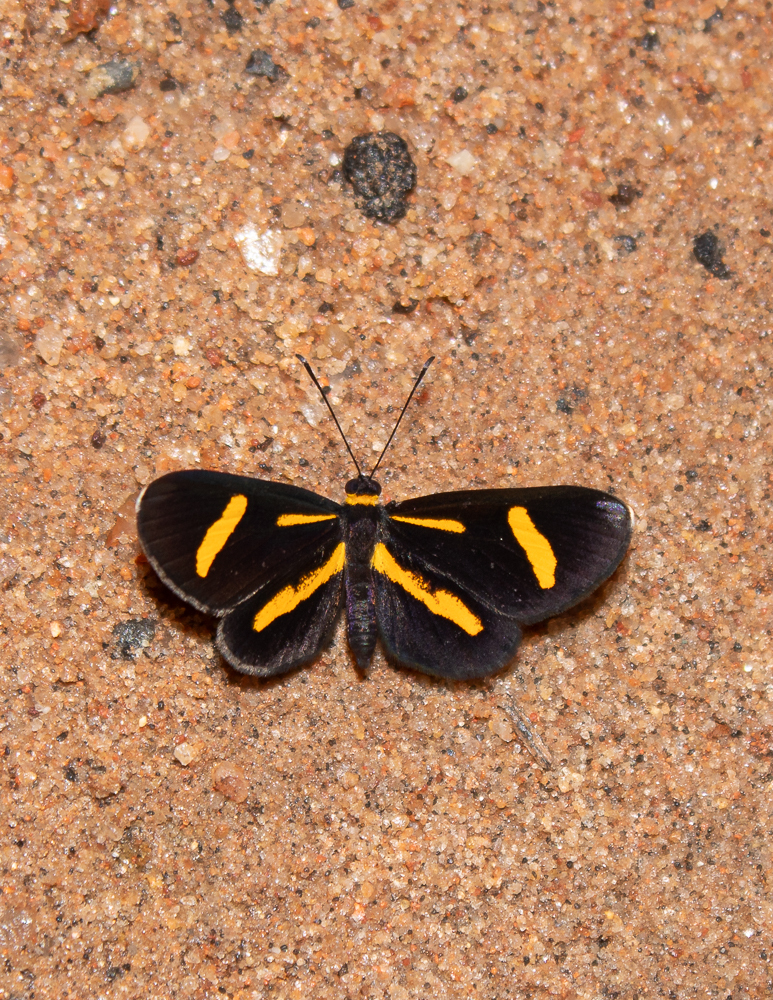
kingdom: Animalia
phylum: Arthropoda
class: Insecta
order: Lepidoptera
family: Riodinidae
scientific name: Riodinidae
